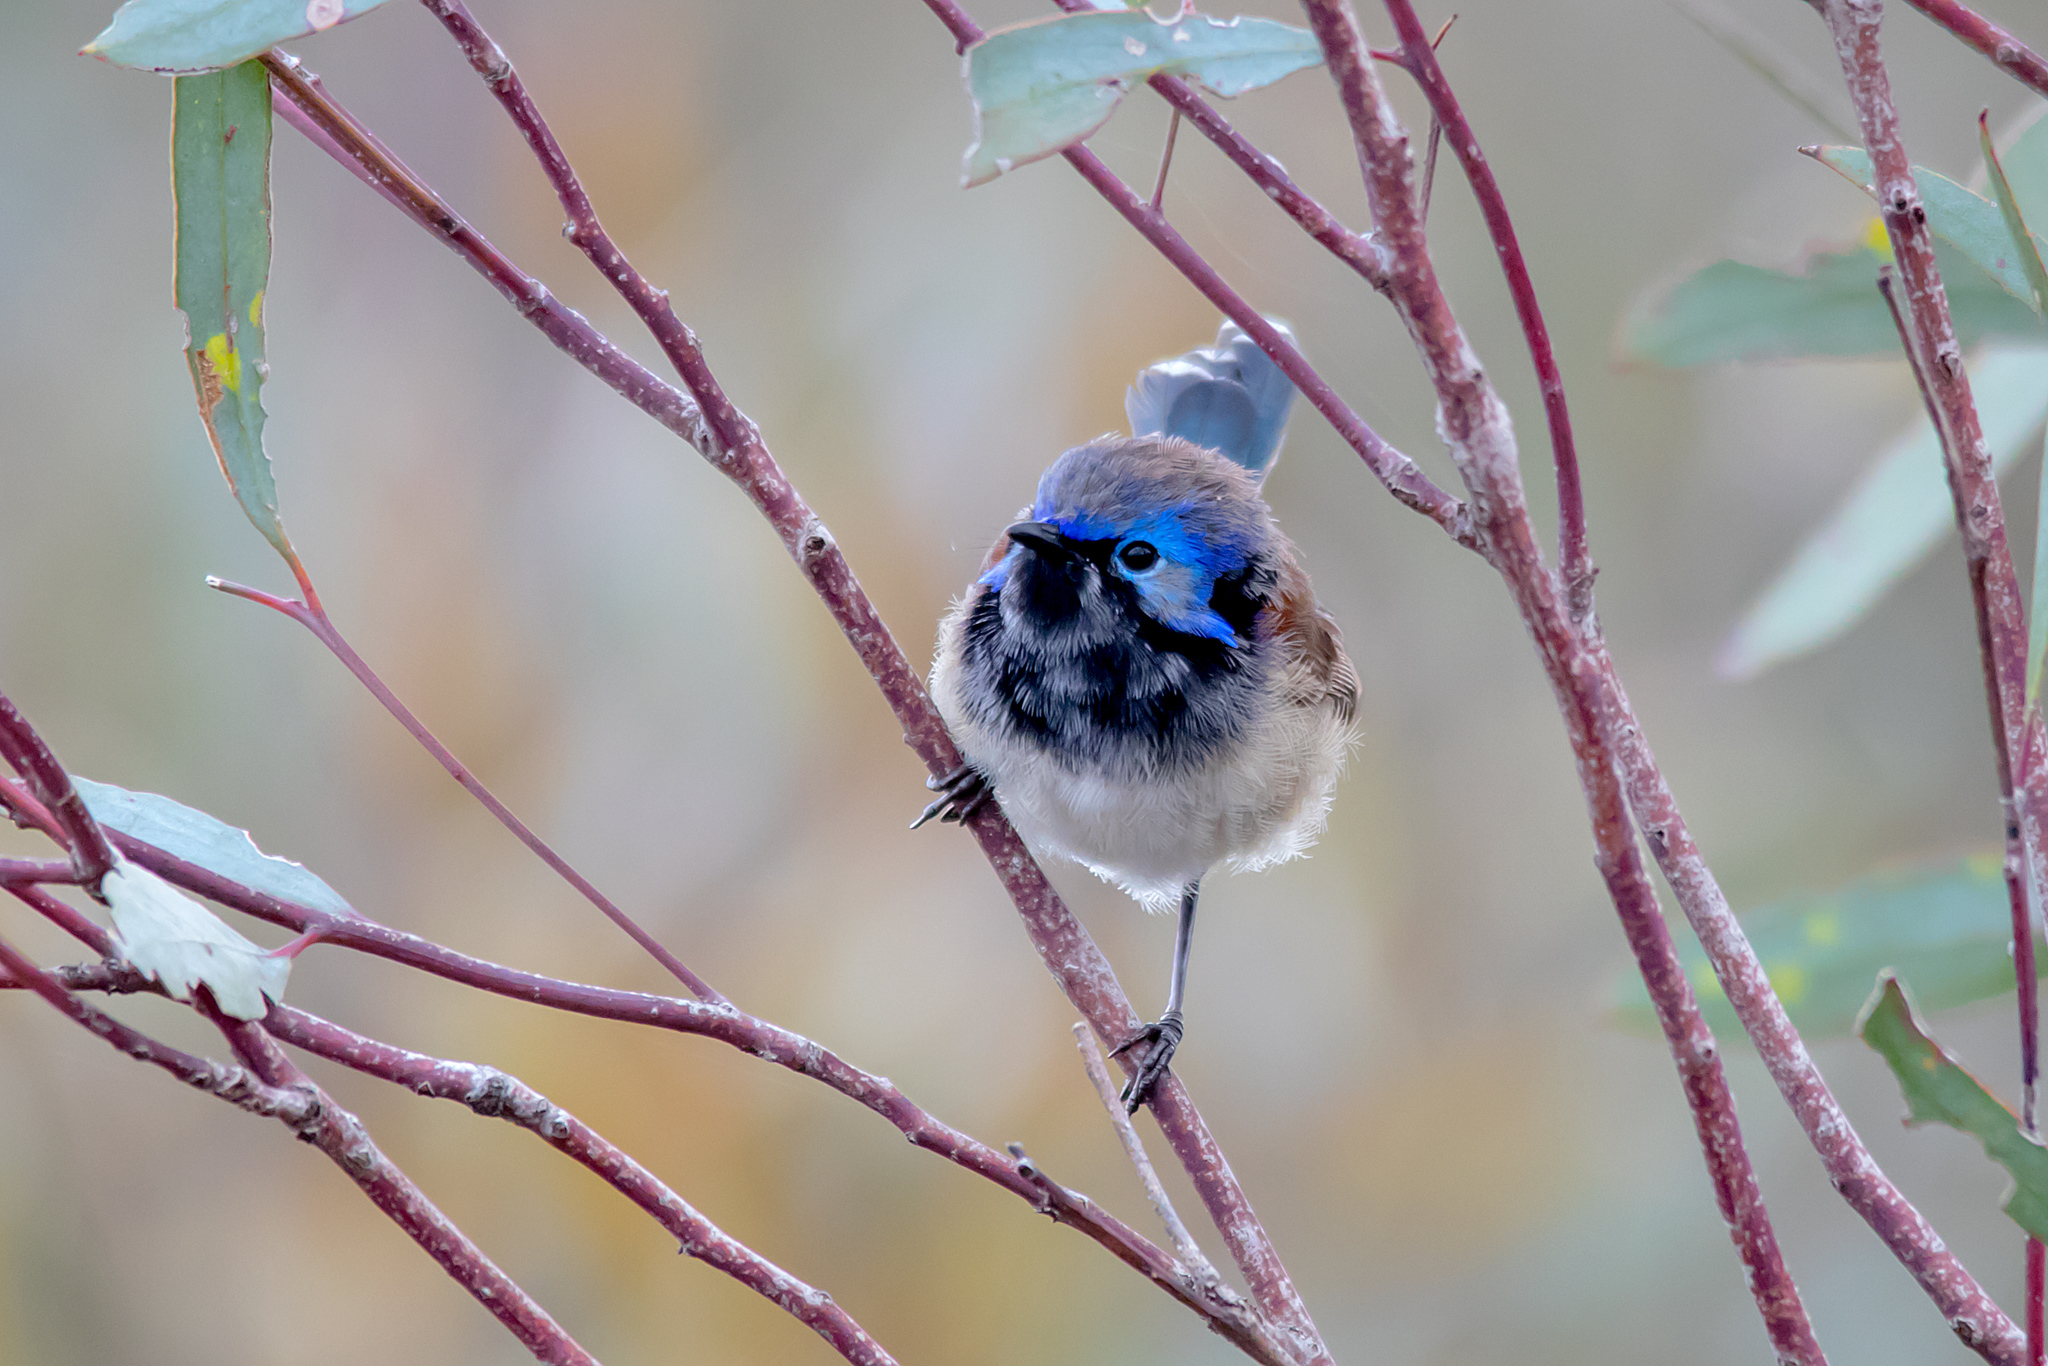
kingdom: Animalia
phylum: Chordata
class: Aves
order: Passeriformes
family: Maluridae
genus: Malurus
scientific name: Malurus assimilis
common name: Purple-backed fairywren
